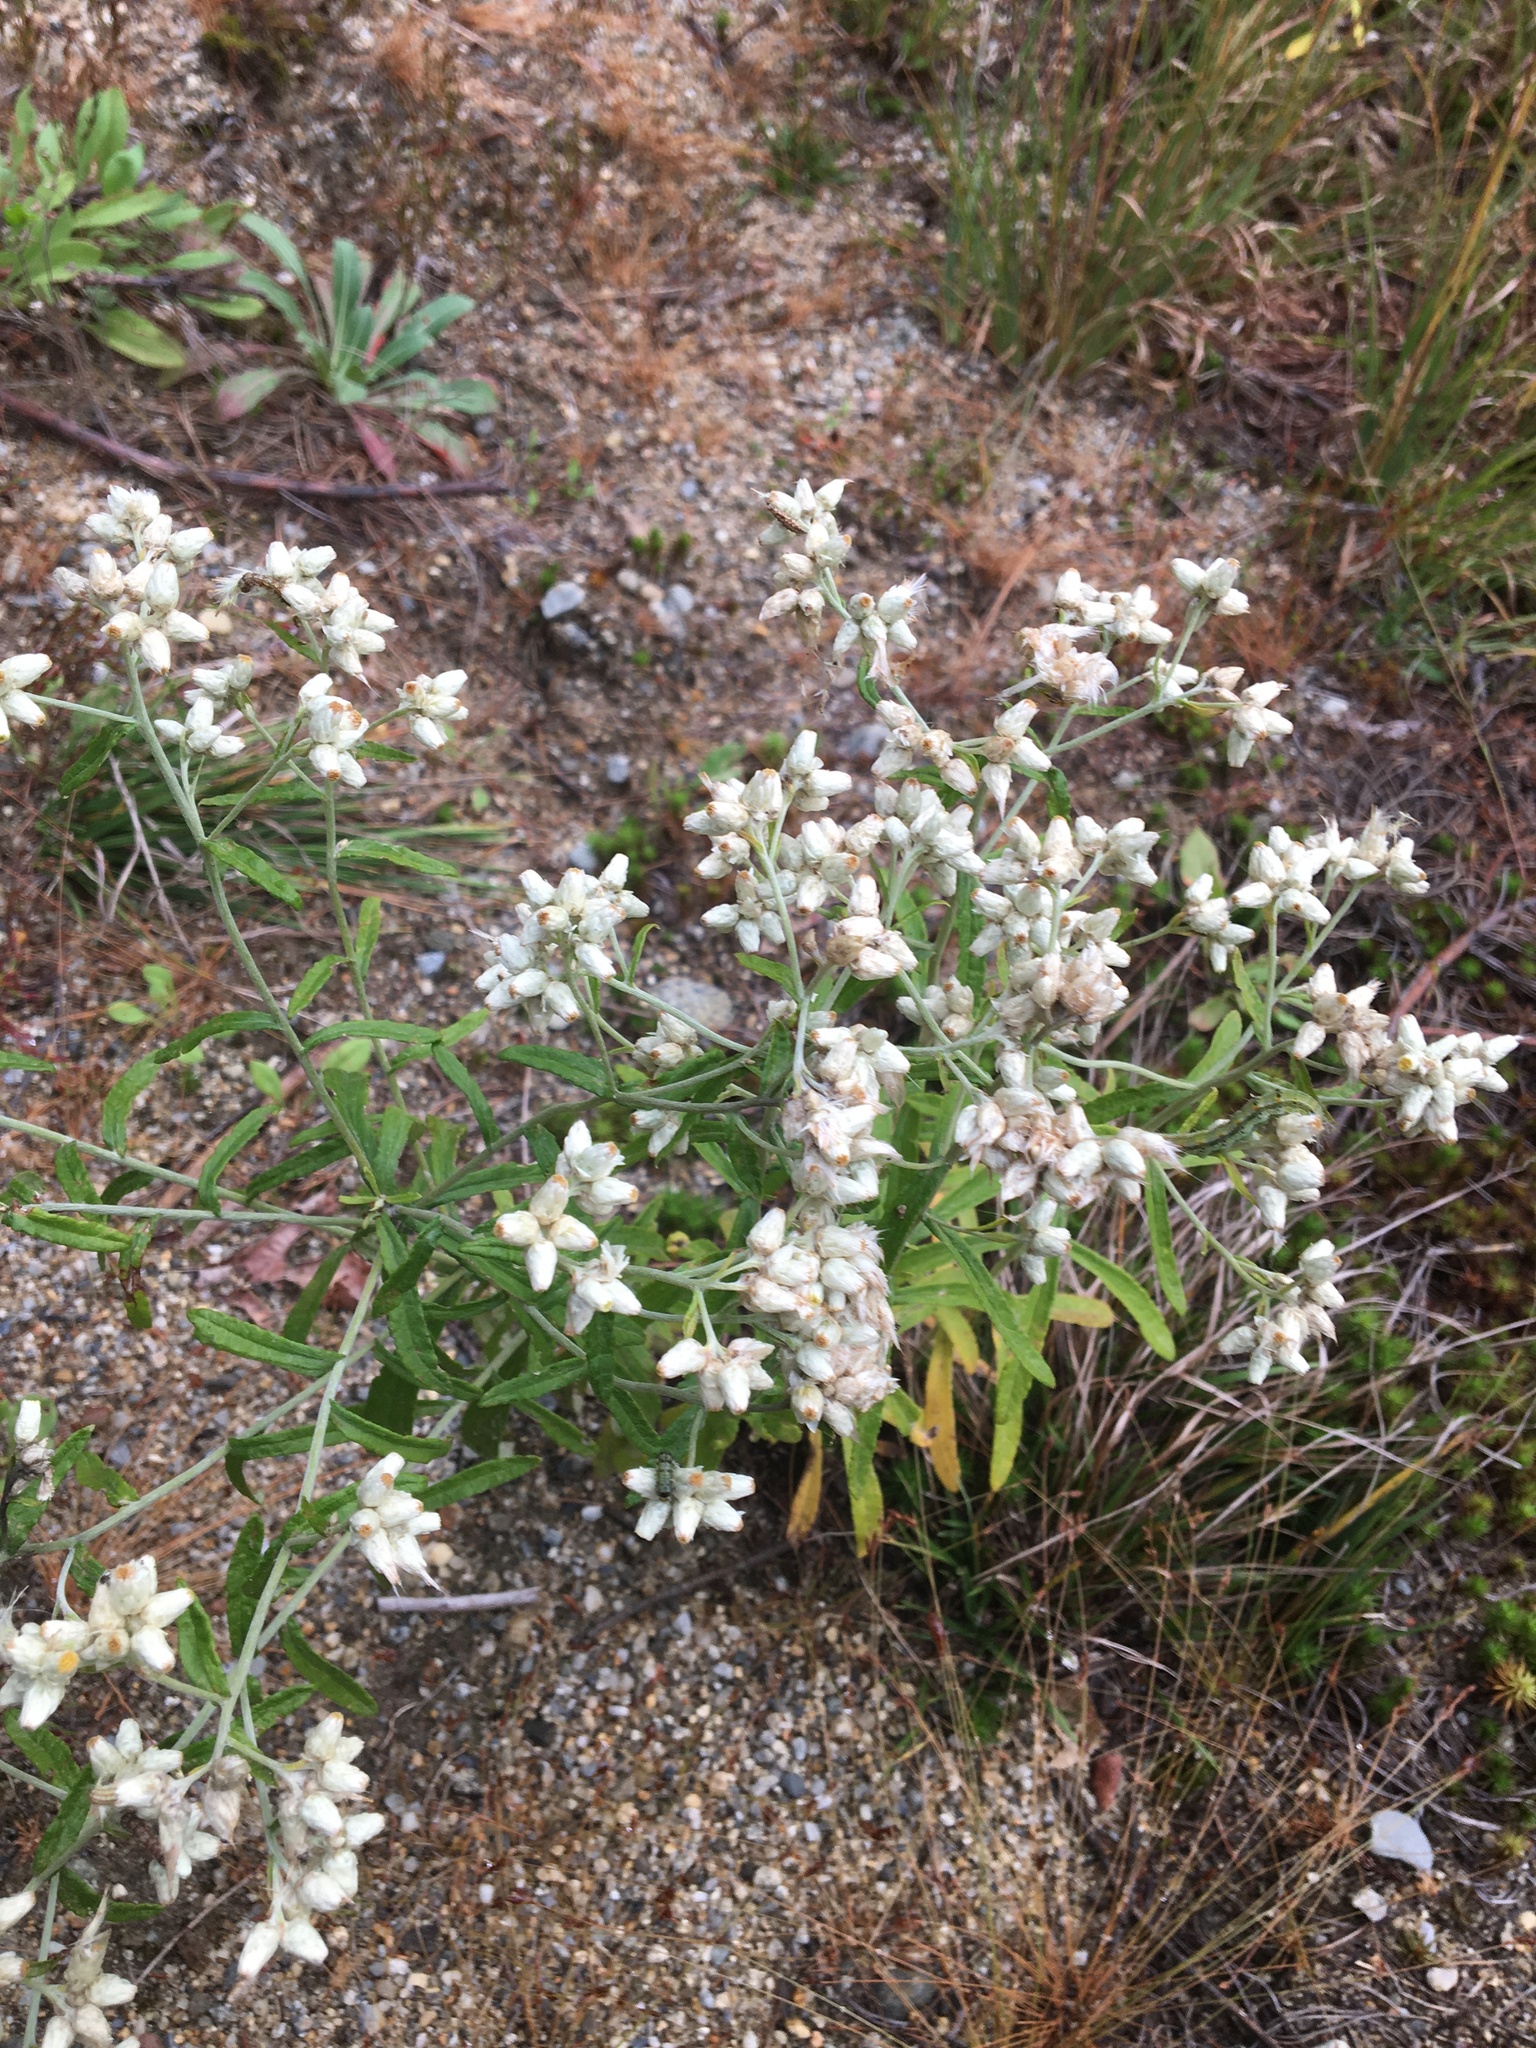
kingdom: Plantae
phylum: Tracheophyta
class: Magnoliopsida
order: Asterales
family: Asteraceae
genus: Pseudognaphalium
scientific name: Pseudognaphalium obtusifolium
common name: Eastern rabbit-tobacco
